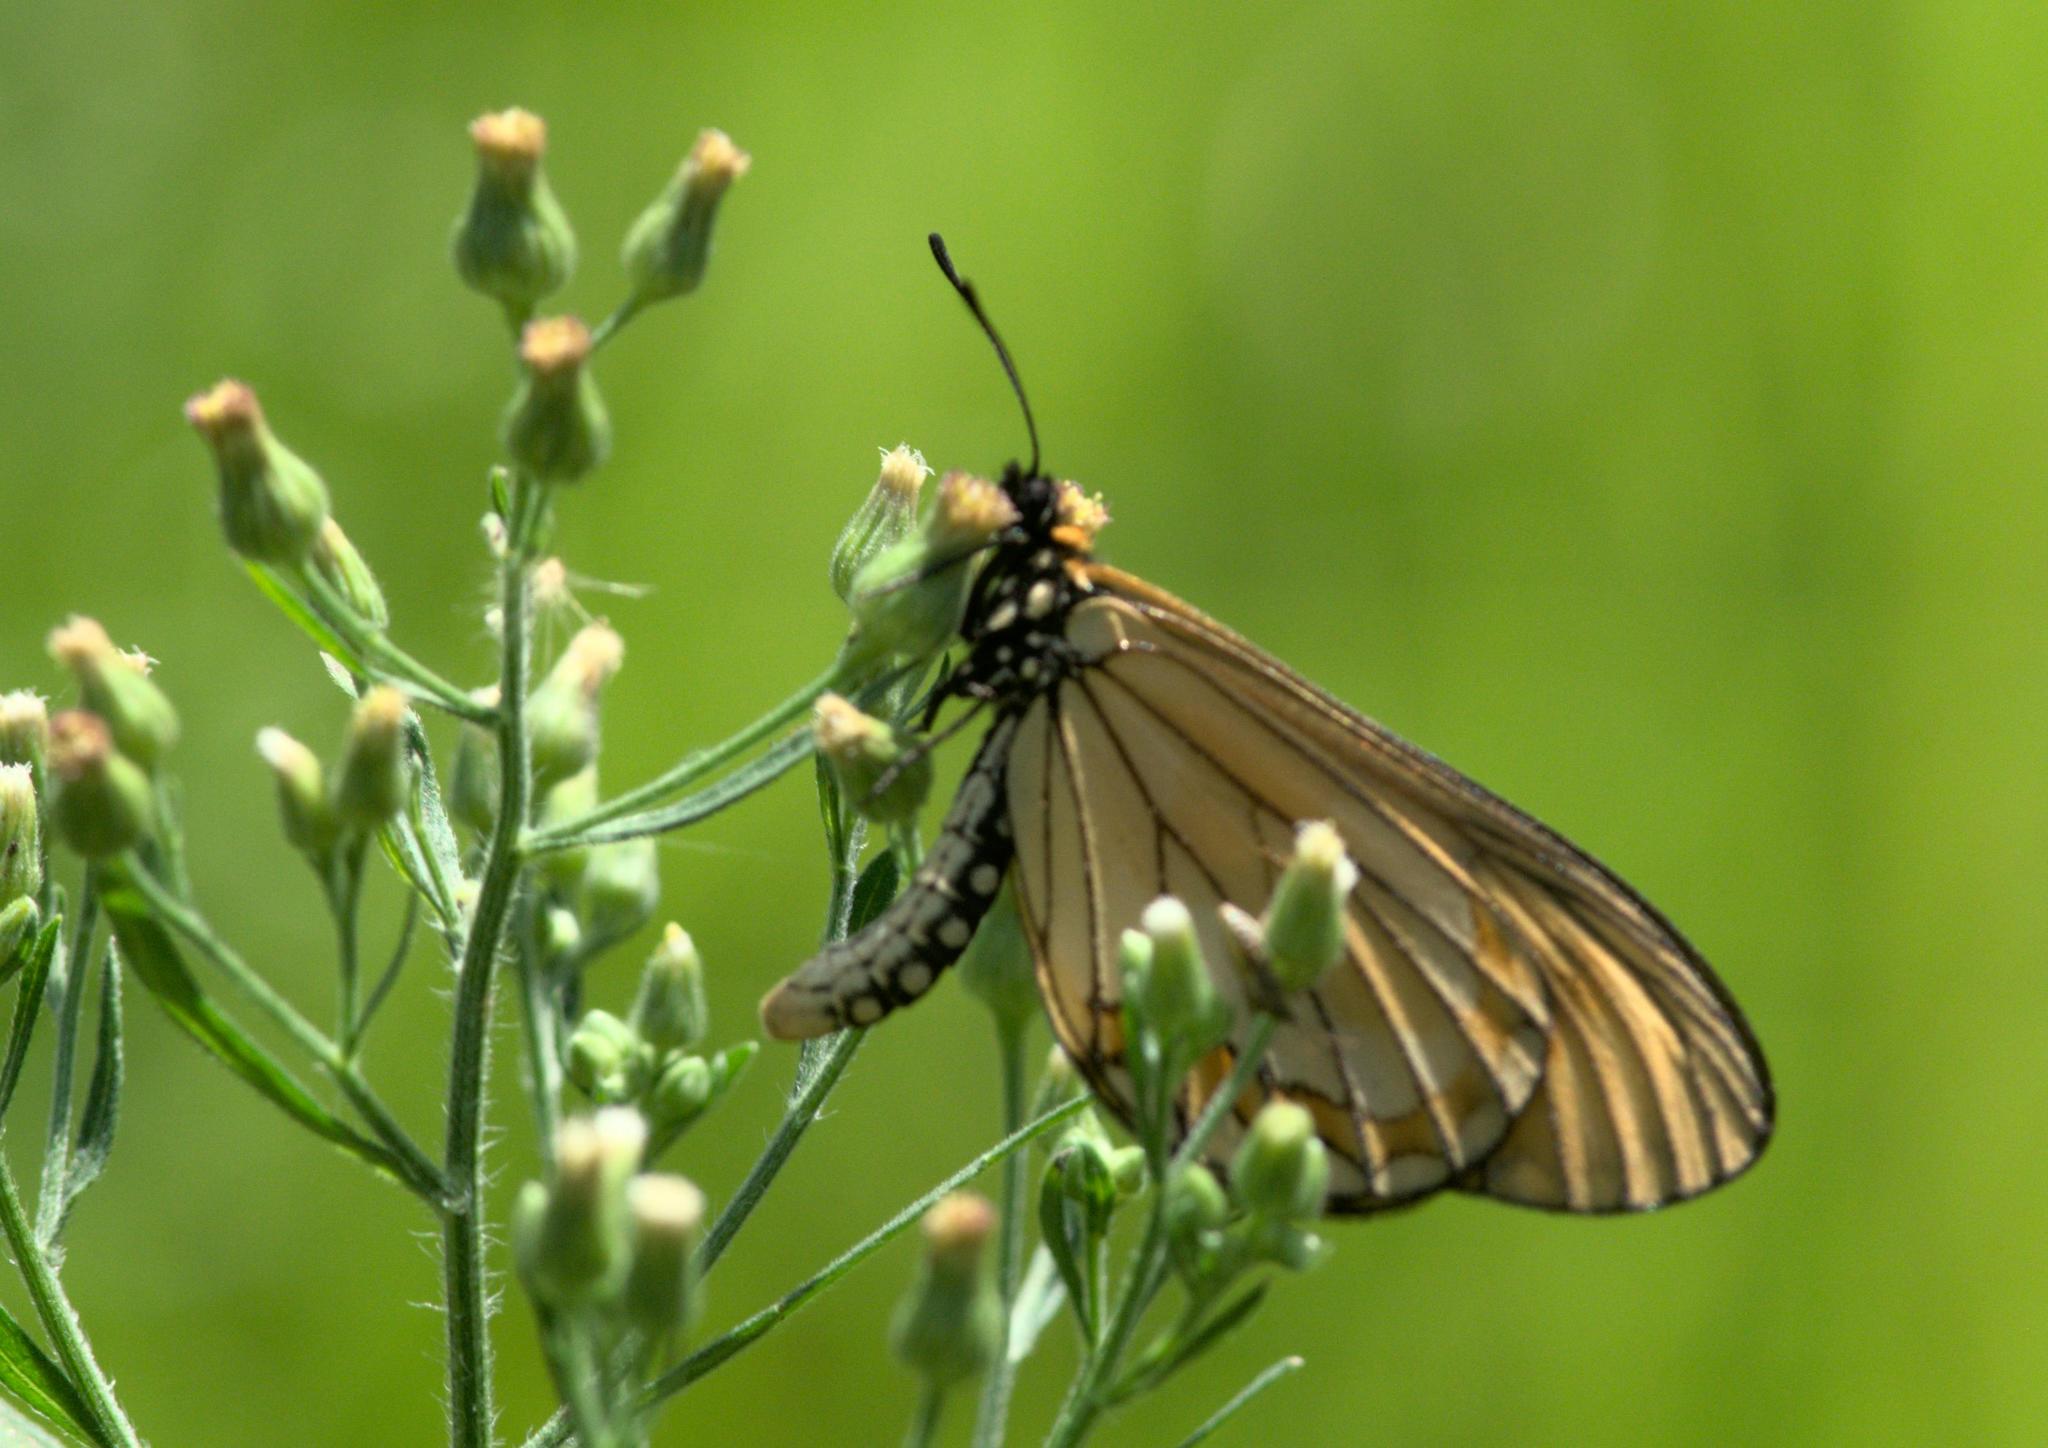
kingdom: Animalia
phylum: Arthropoda
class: Insecta
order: Lepidoptera
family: Nymphalidae
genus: Acraea
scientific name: Acraea Telchinia issoria
